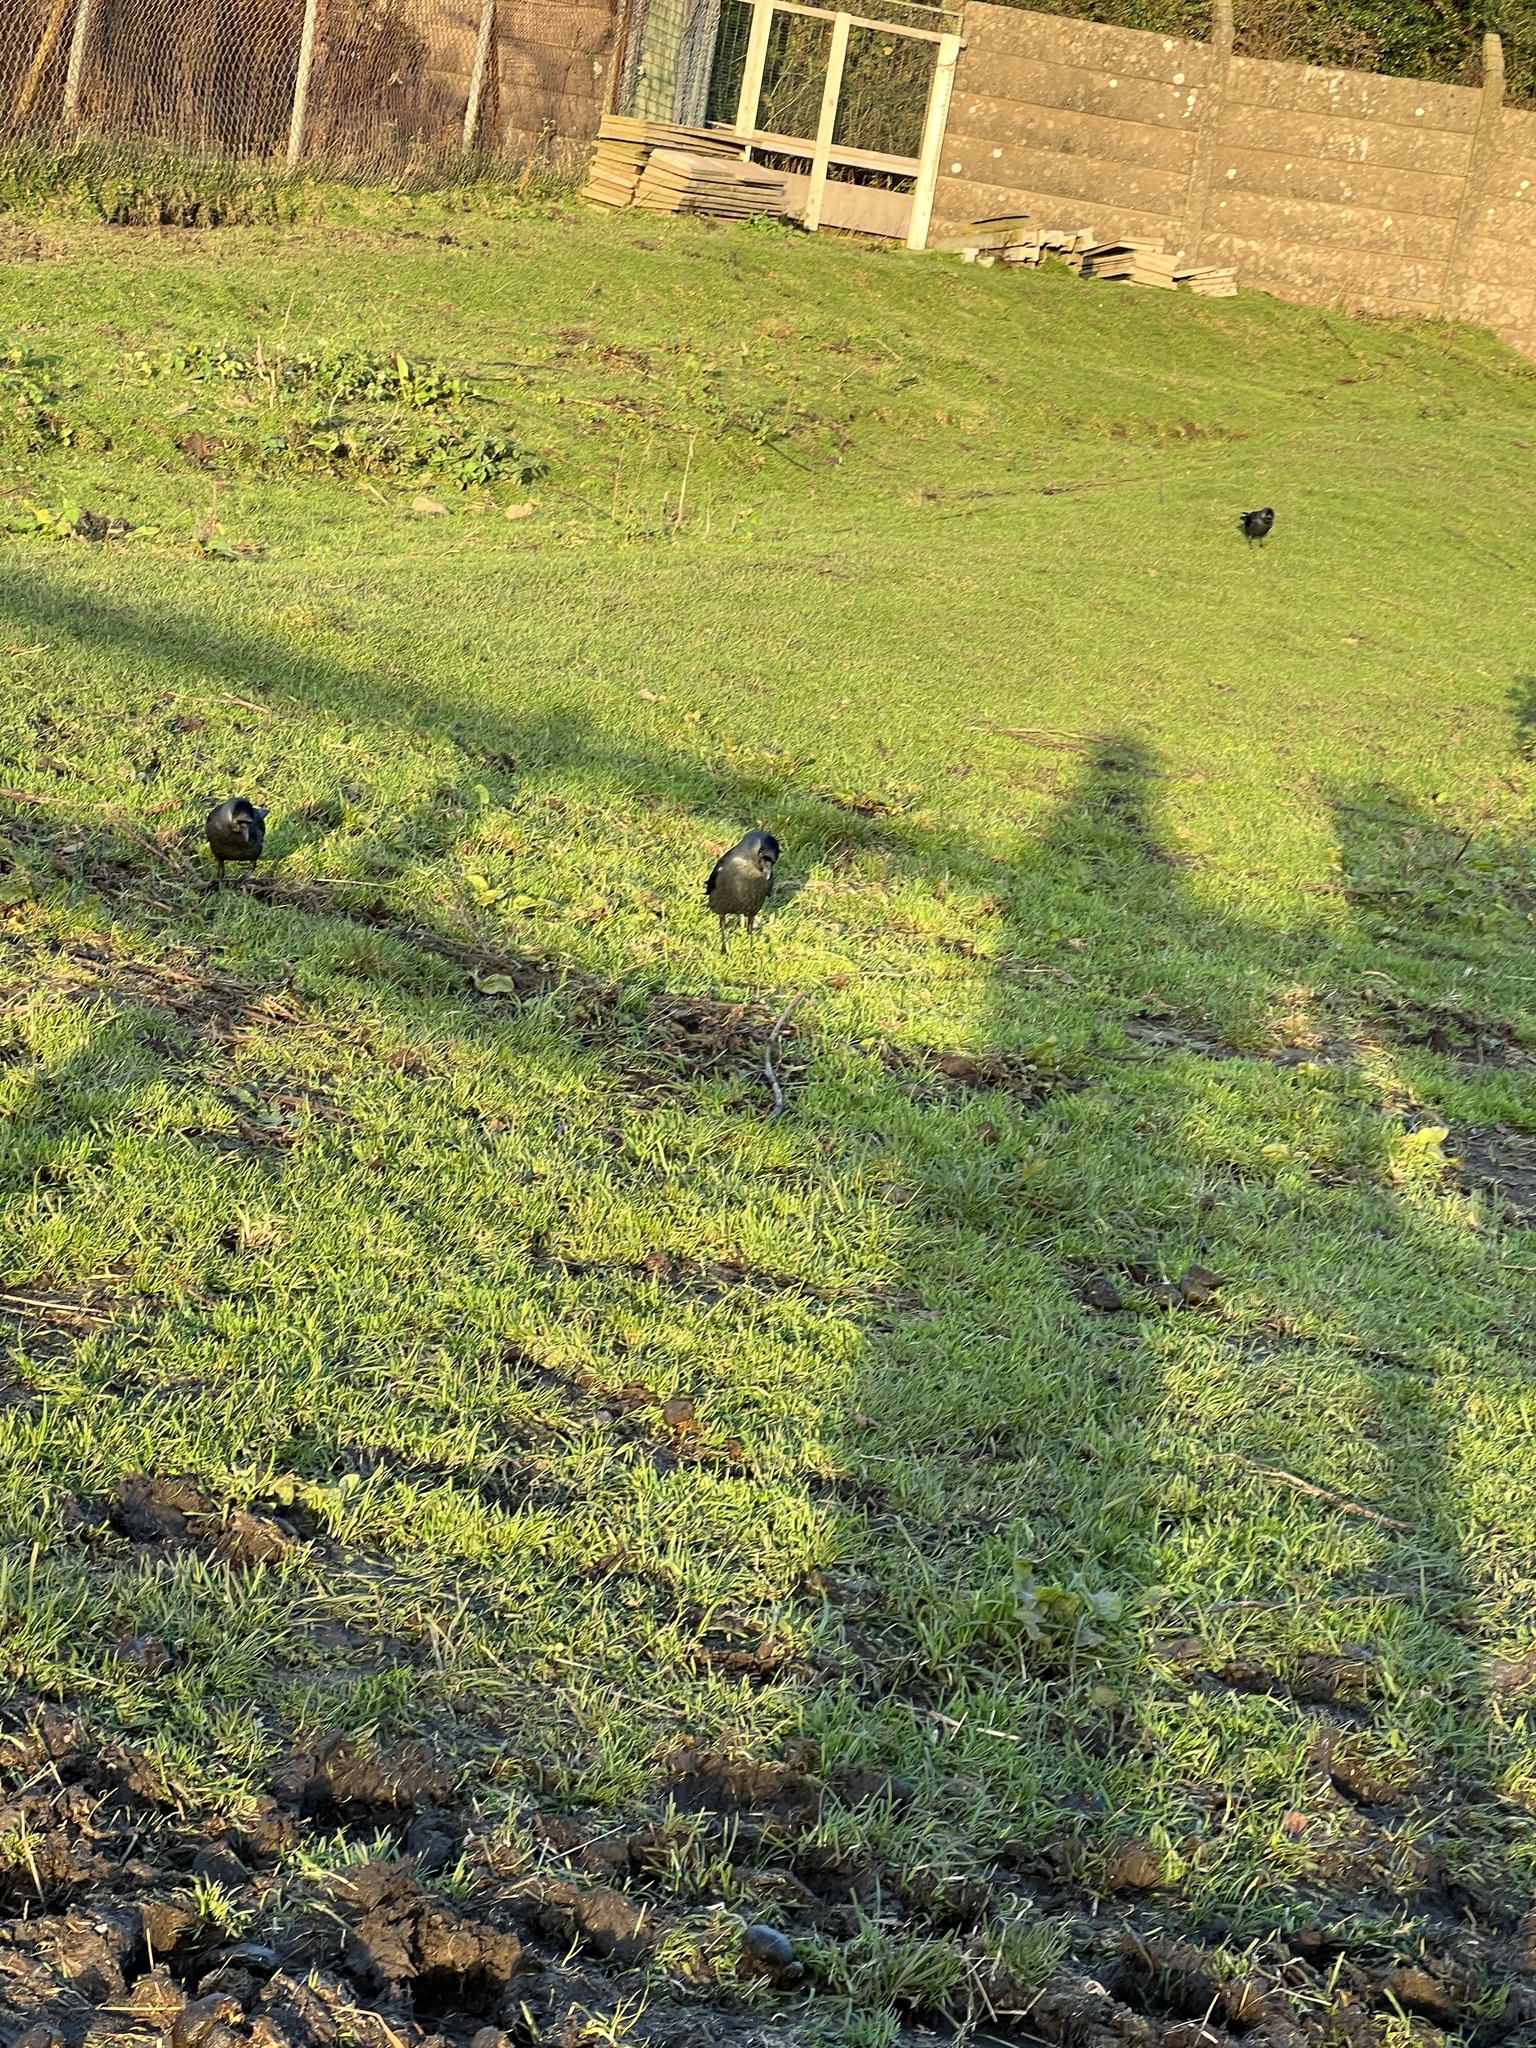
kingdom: Animalia
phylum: Chordata
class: Aves
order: Passeriformes
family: Corvidae
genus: Coloeus
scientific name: Coloeus monedula
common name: Western jackdaw
